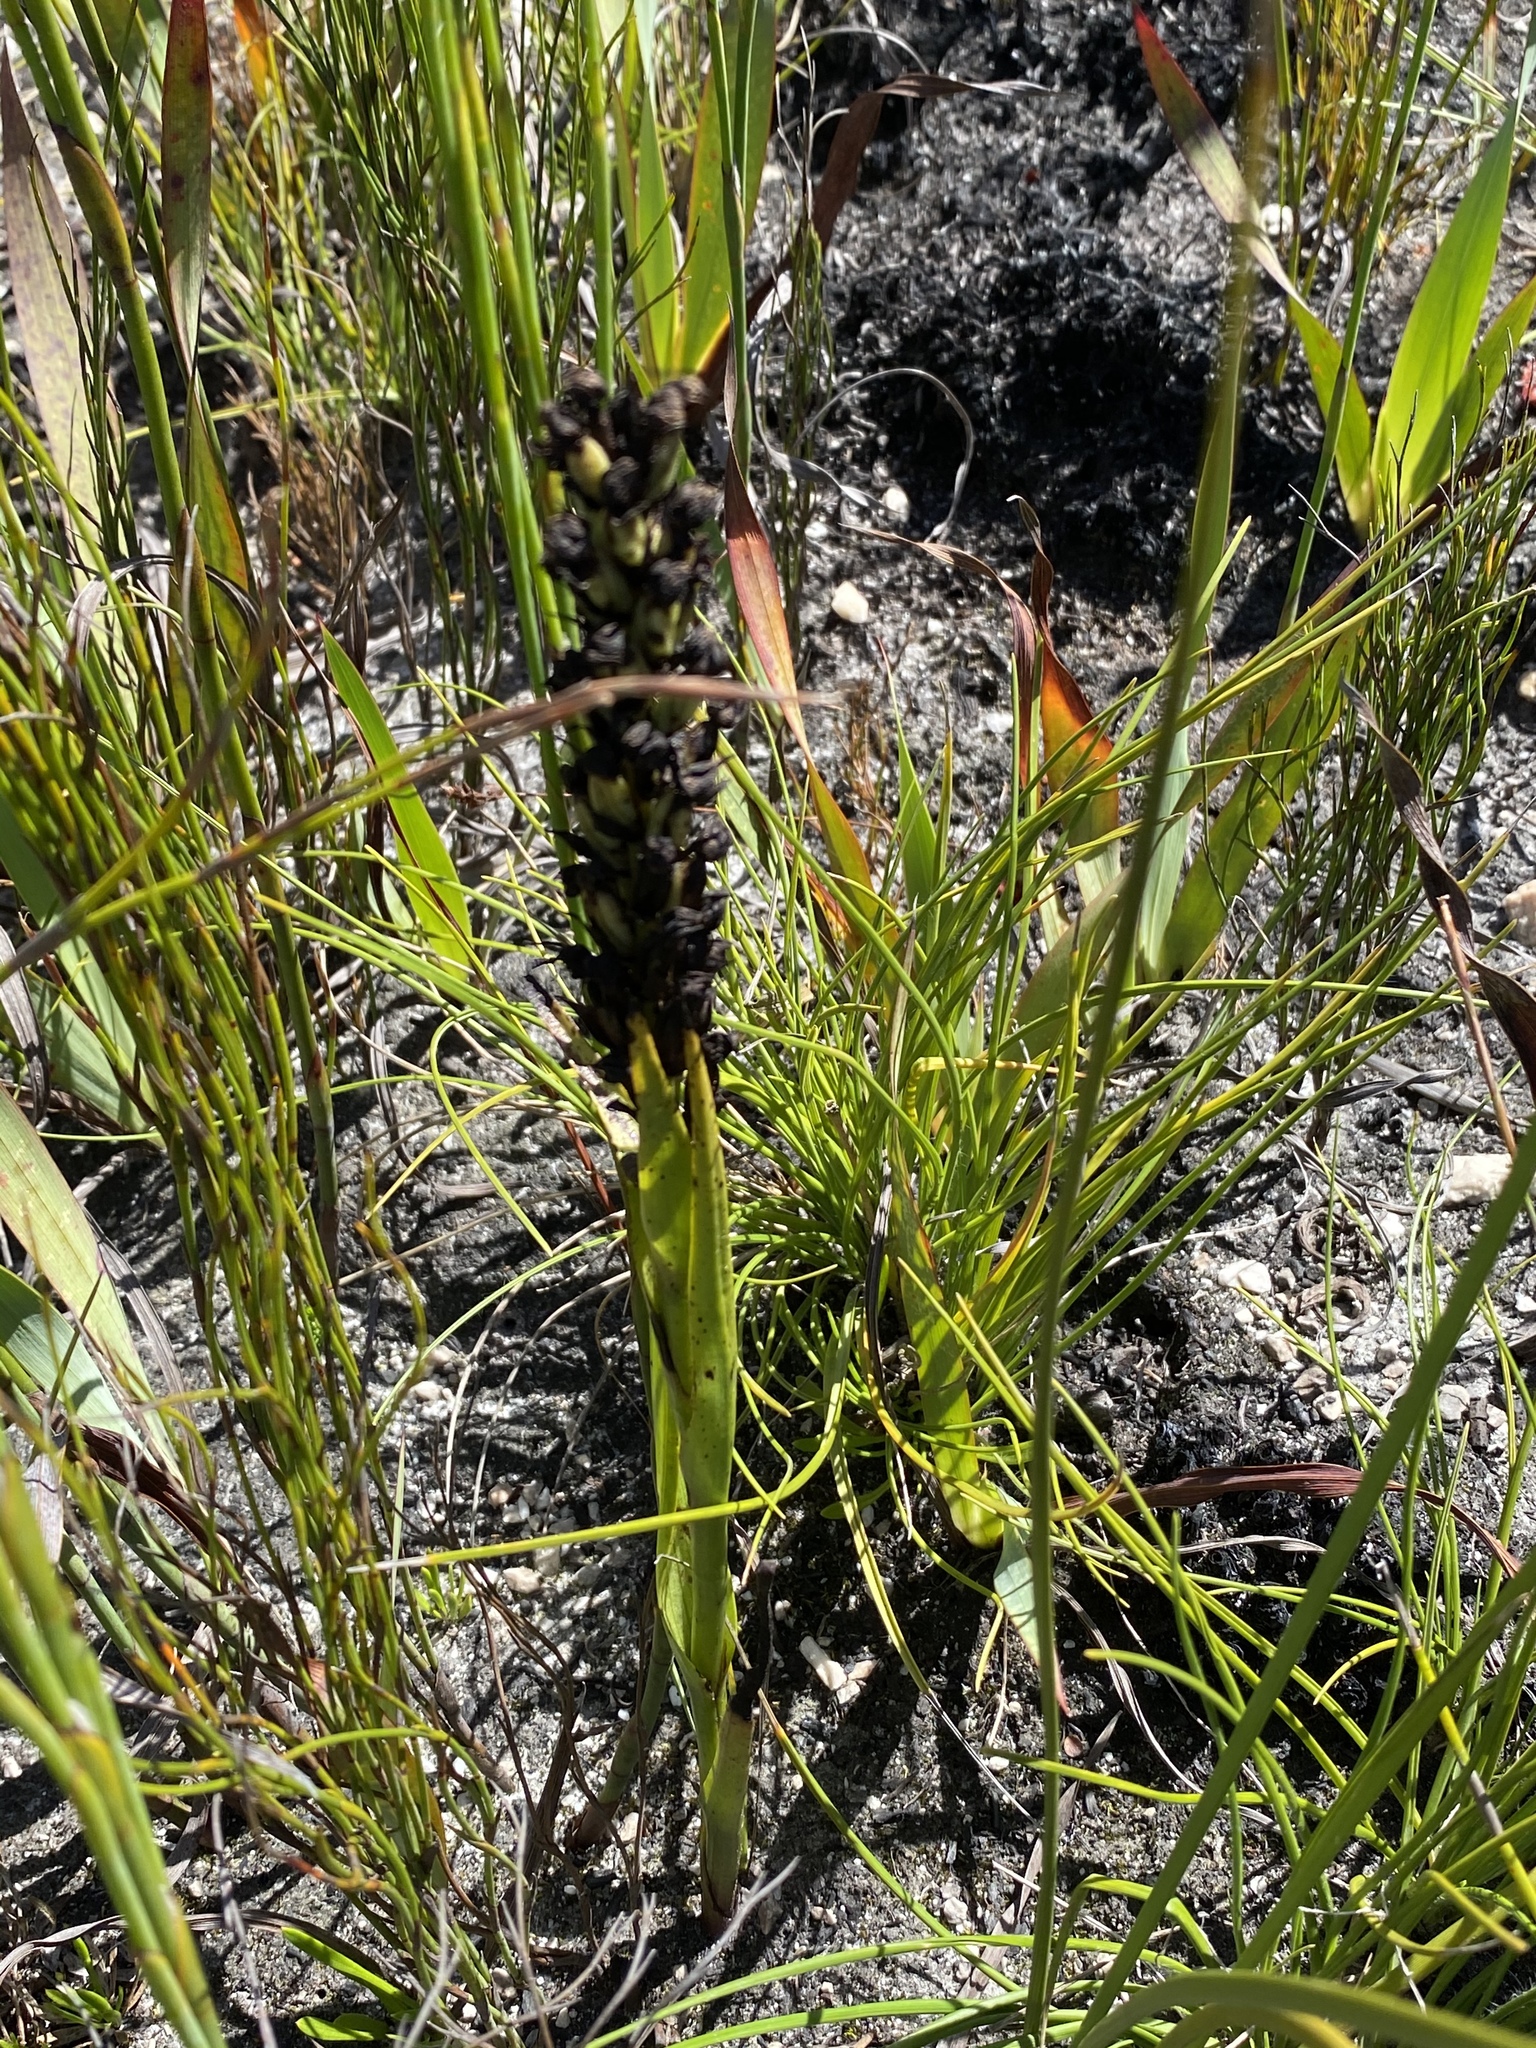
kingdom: Plantae
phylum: Tracheophyta
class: Liliopsida
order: Asparagales
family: Orchidaceae
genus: Evotella
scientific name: Evotella carnosa
